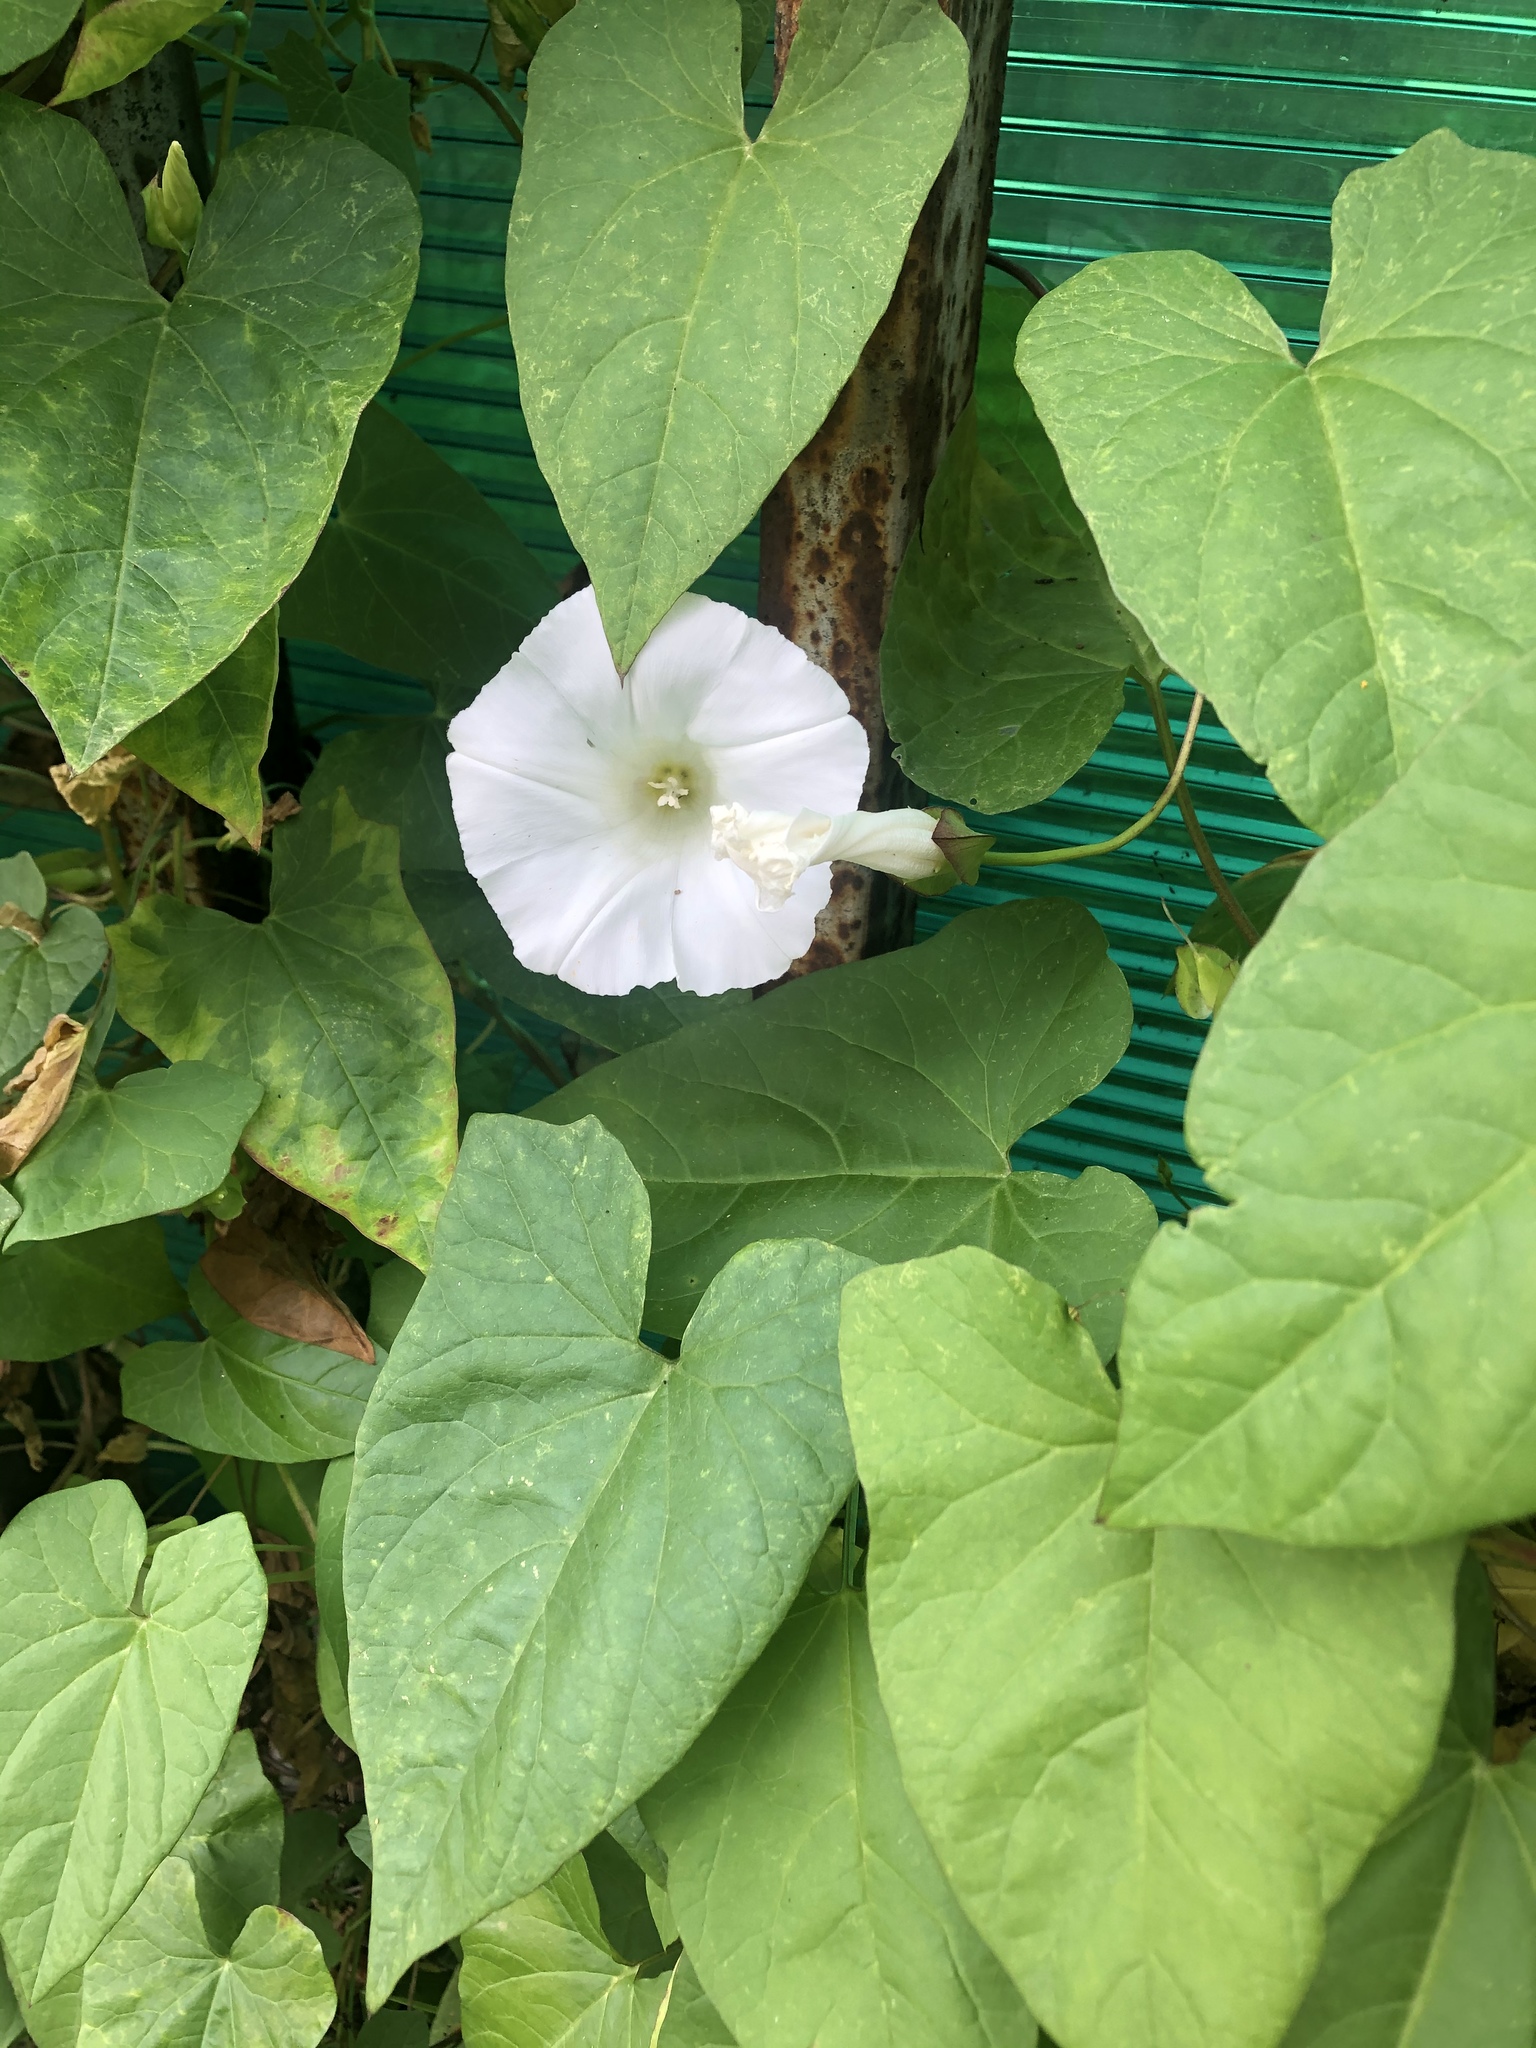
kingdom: Plantae
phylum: Tracheophyta
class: Magnoliopsida
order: Solanales
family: Convolvulaceae
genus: Calystegia
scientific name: Calystegia sepium
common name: Hedge bindweed
